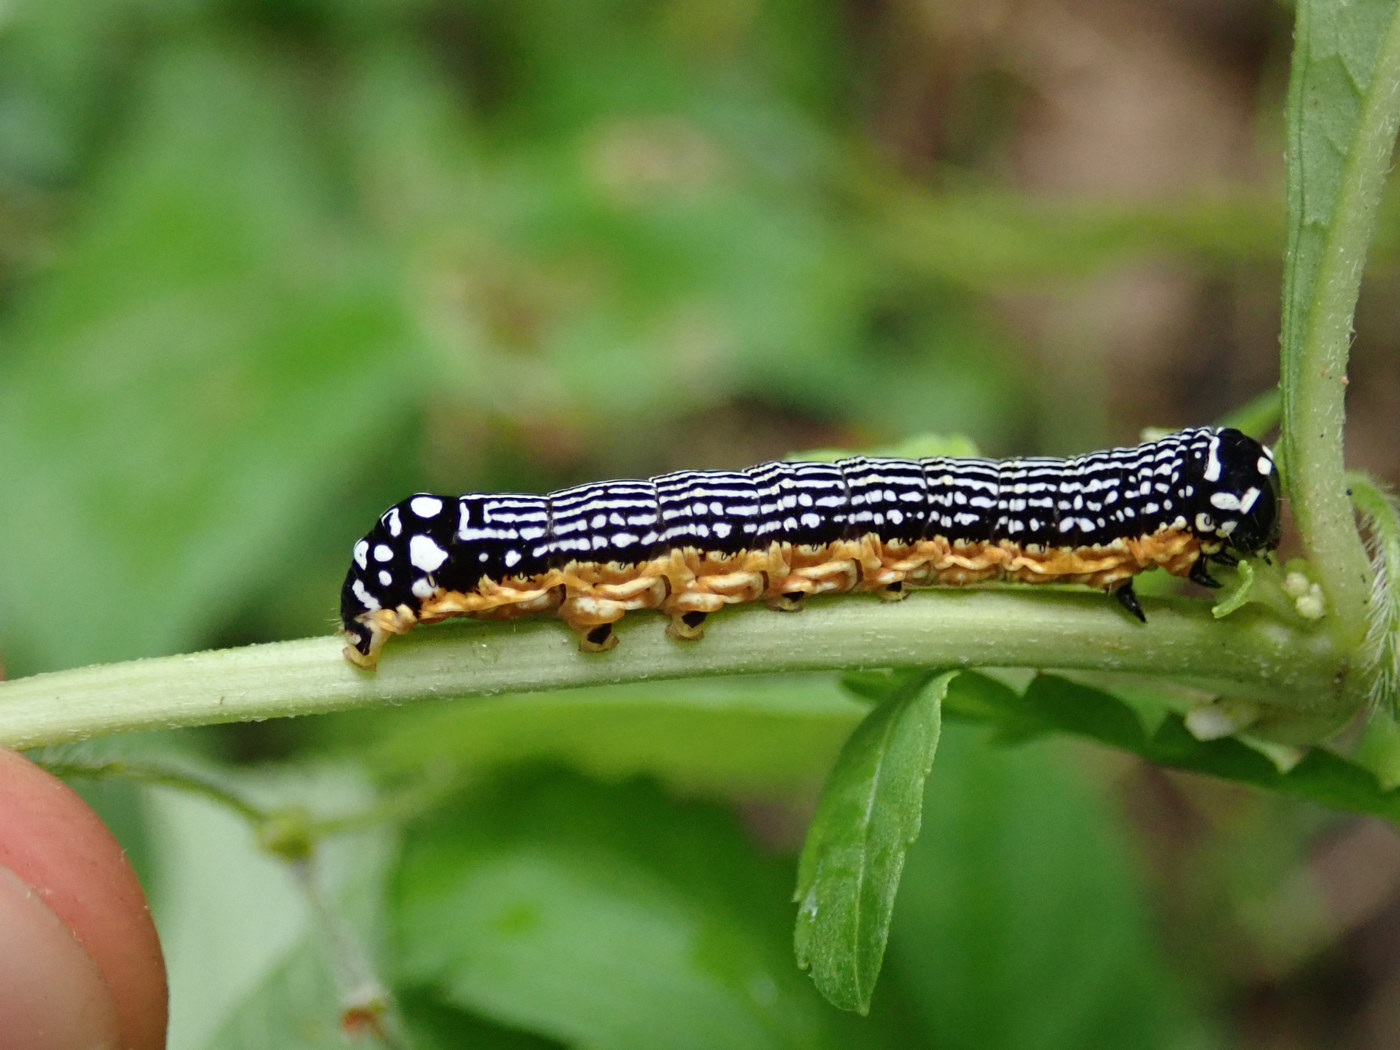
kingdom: Animalia
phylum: Arthropoda
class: Insecta
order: Lepidoptera
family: Noctuidae
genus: Phosphila
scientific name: Phosphila turbulenta
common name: Turbulent phosphila moth
